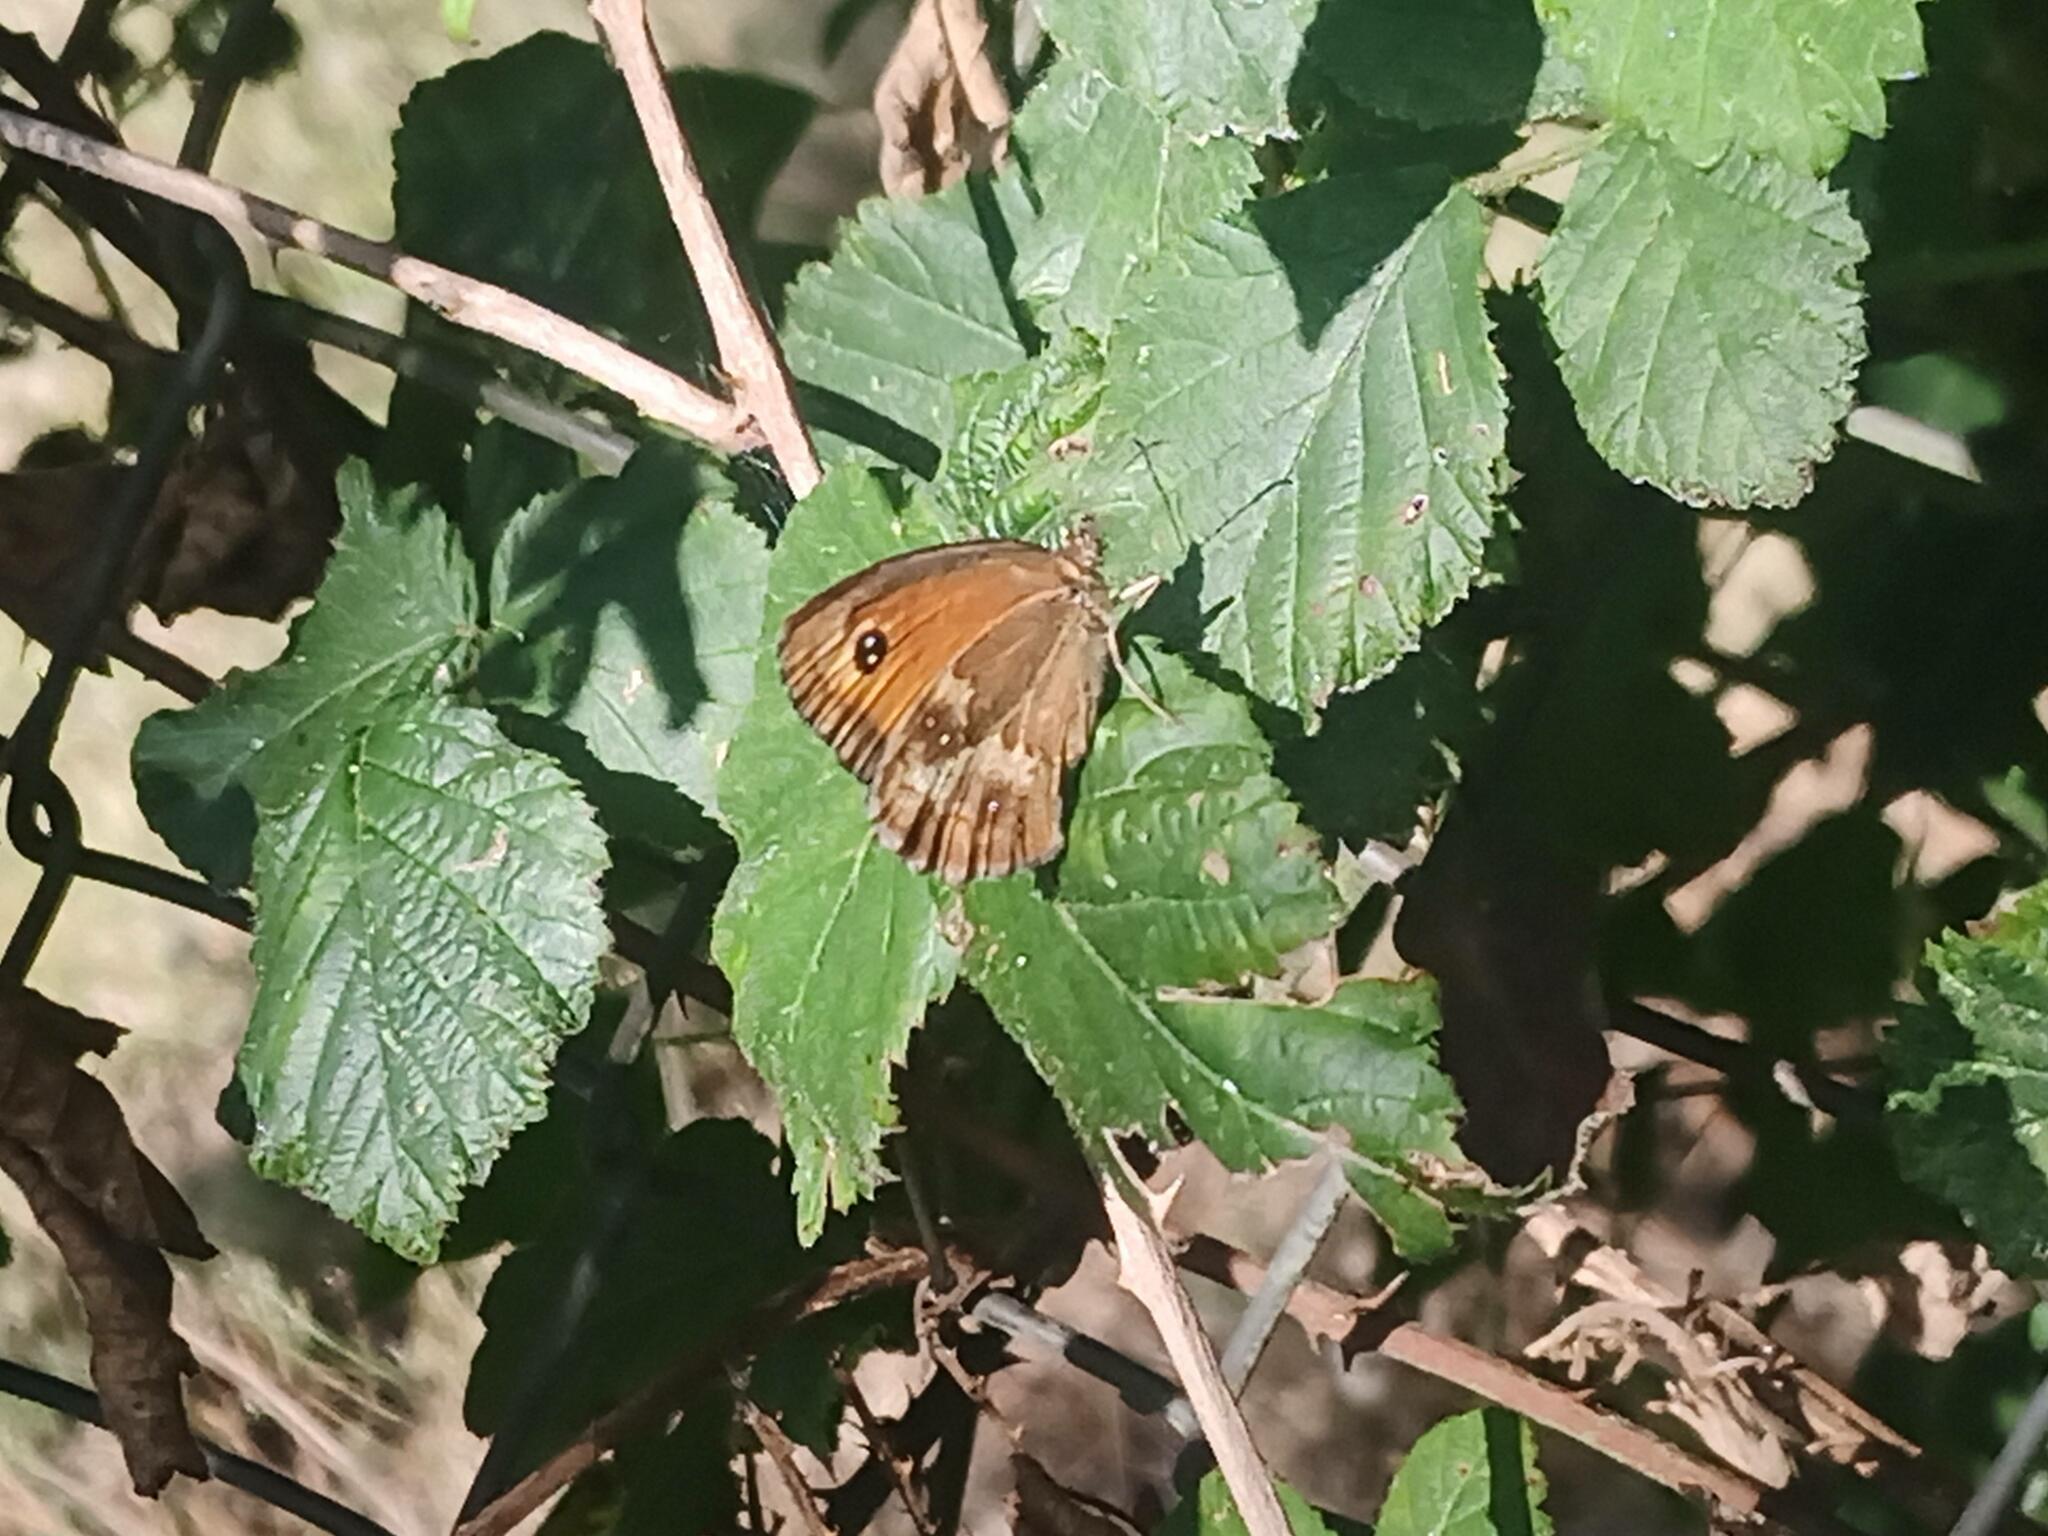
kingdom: Animalia
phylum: Arthropoda
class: Insecta
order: Lepidoptera
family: Nymphalidae
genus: Pyronia
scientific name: Pyronia tithonus
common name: Gatekeeper
